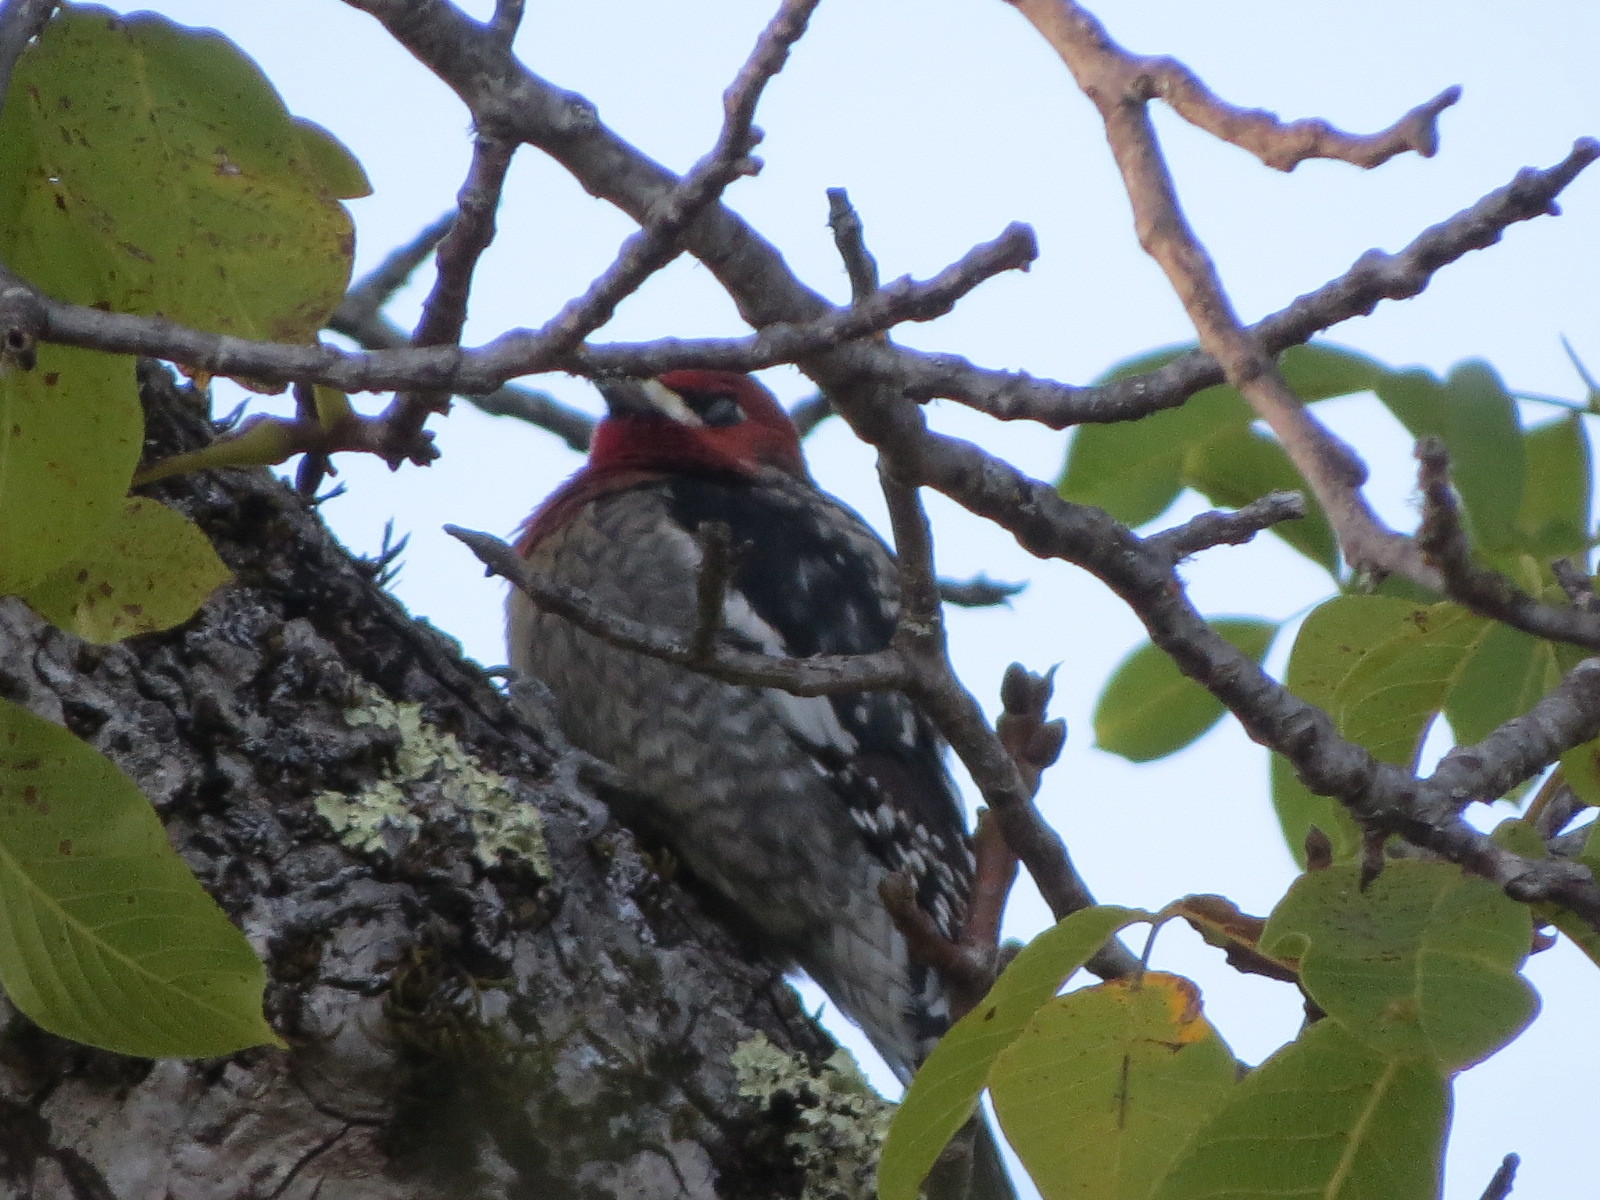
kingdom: Animalia
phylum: Chordata
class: Aves
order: Piciformes
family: Picidae
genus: Sphyrapicus
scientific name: Sphyrapicus ruber
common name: Red-breasted sapsucker
